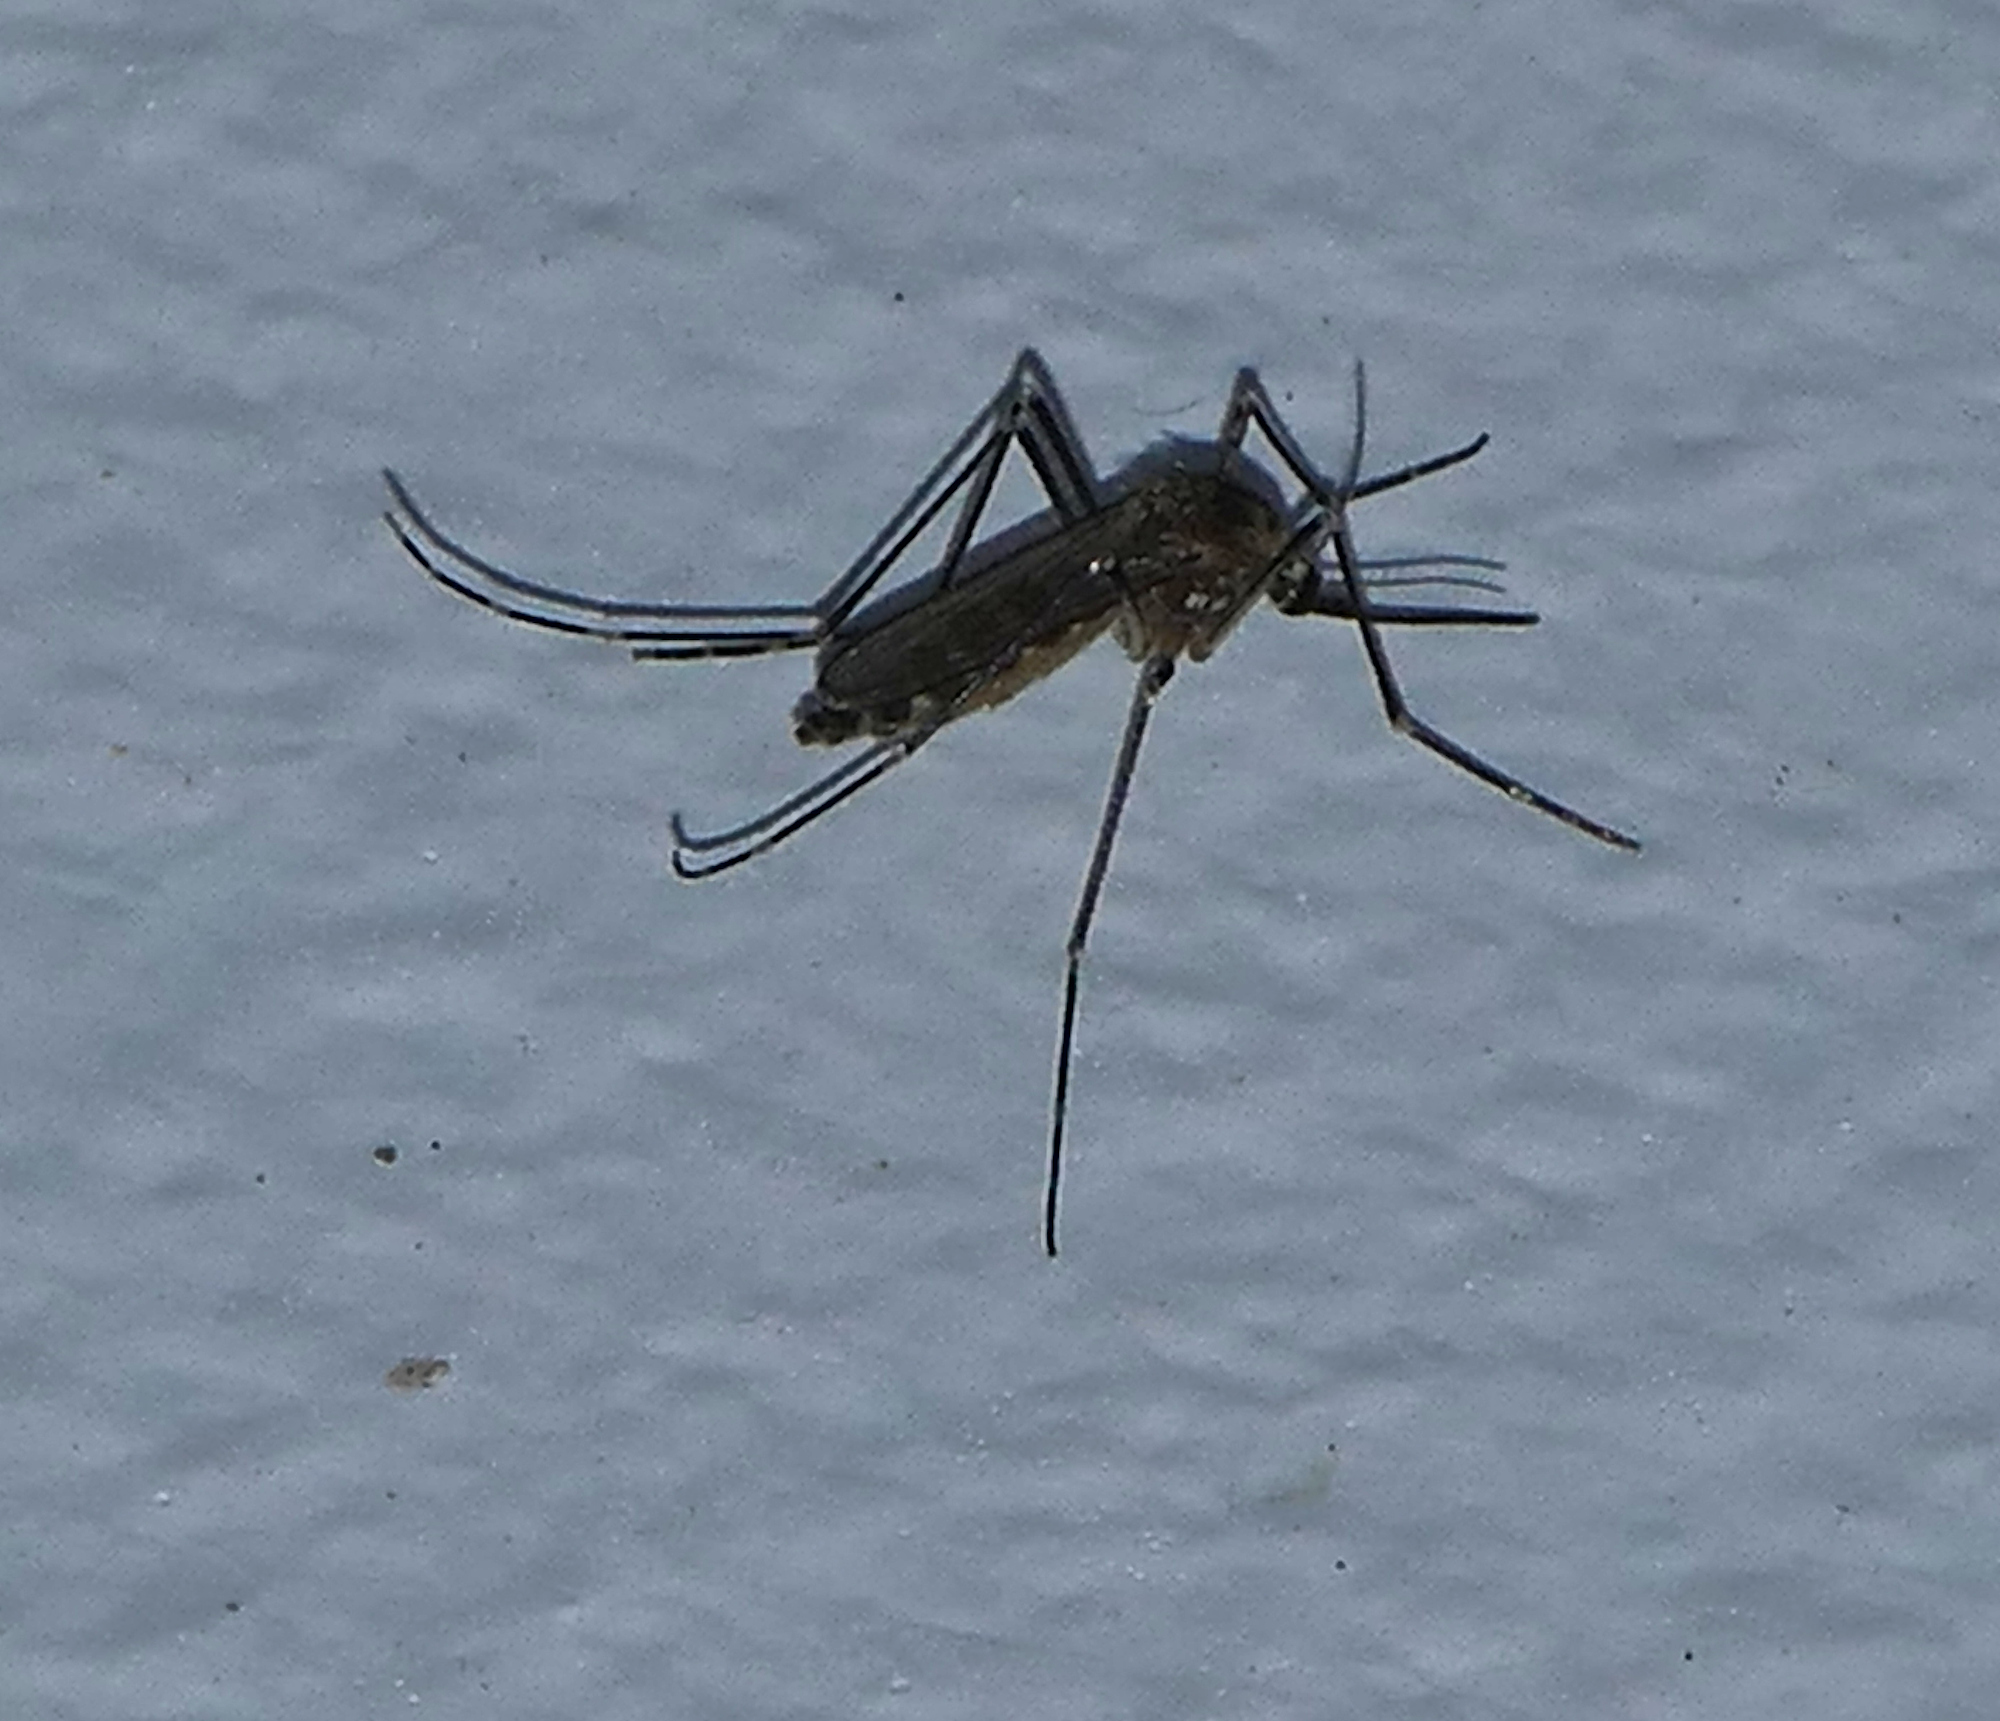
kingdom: Animalia
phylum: Arthropoda
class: Insecta
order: Diptera
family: Culicidae
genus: Aedes
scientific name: Aedes epactius
